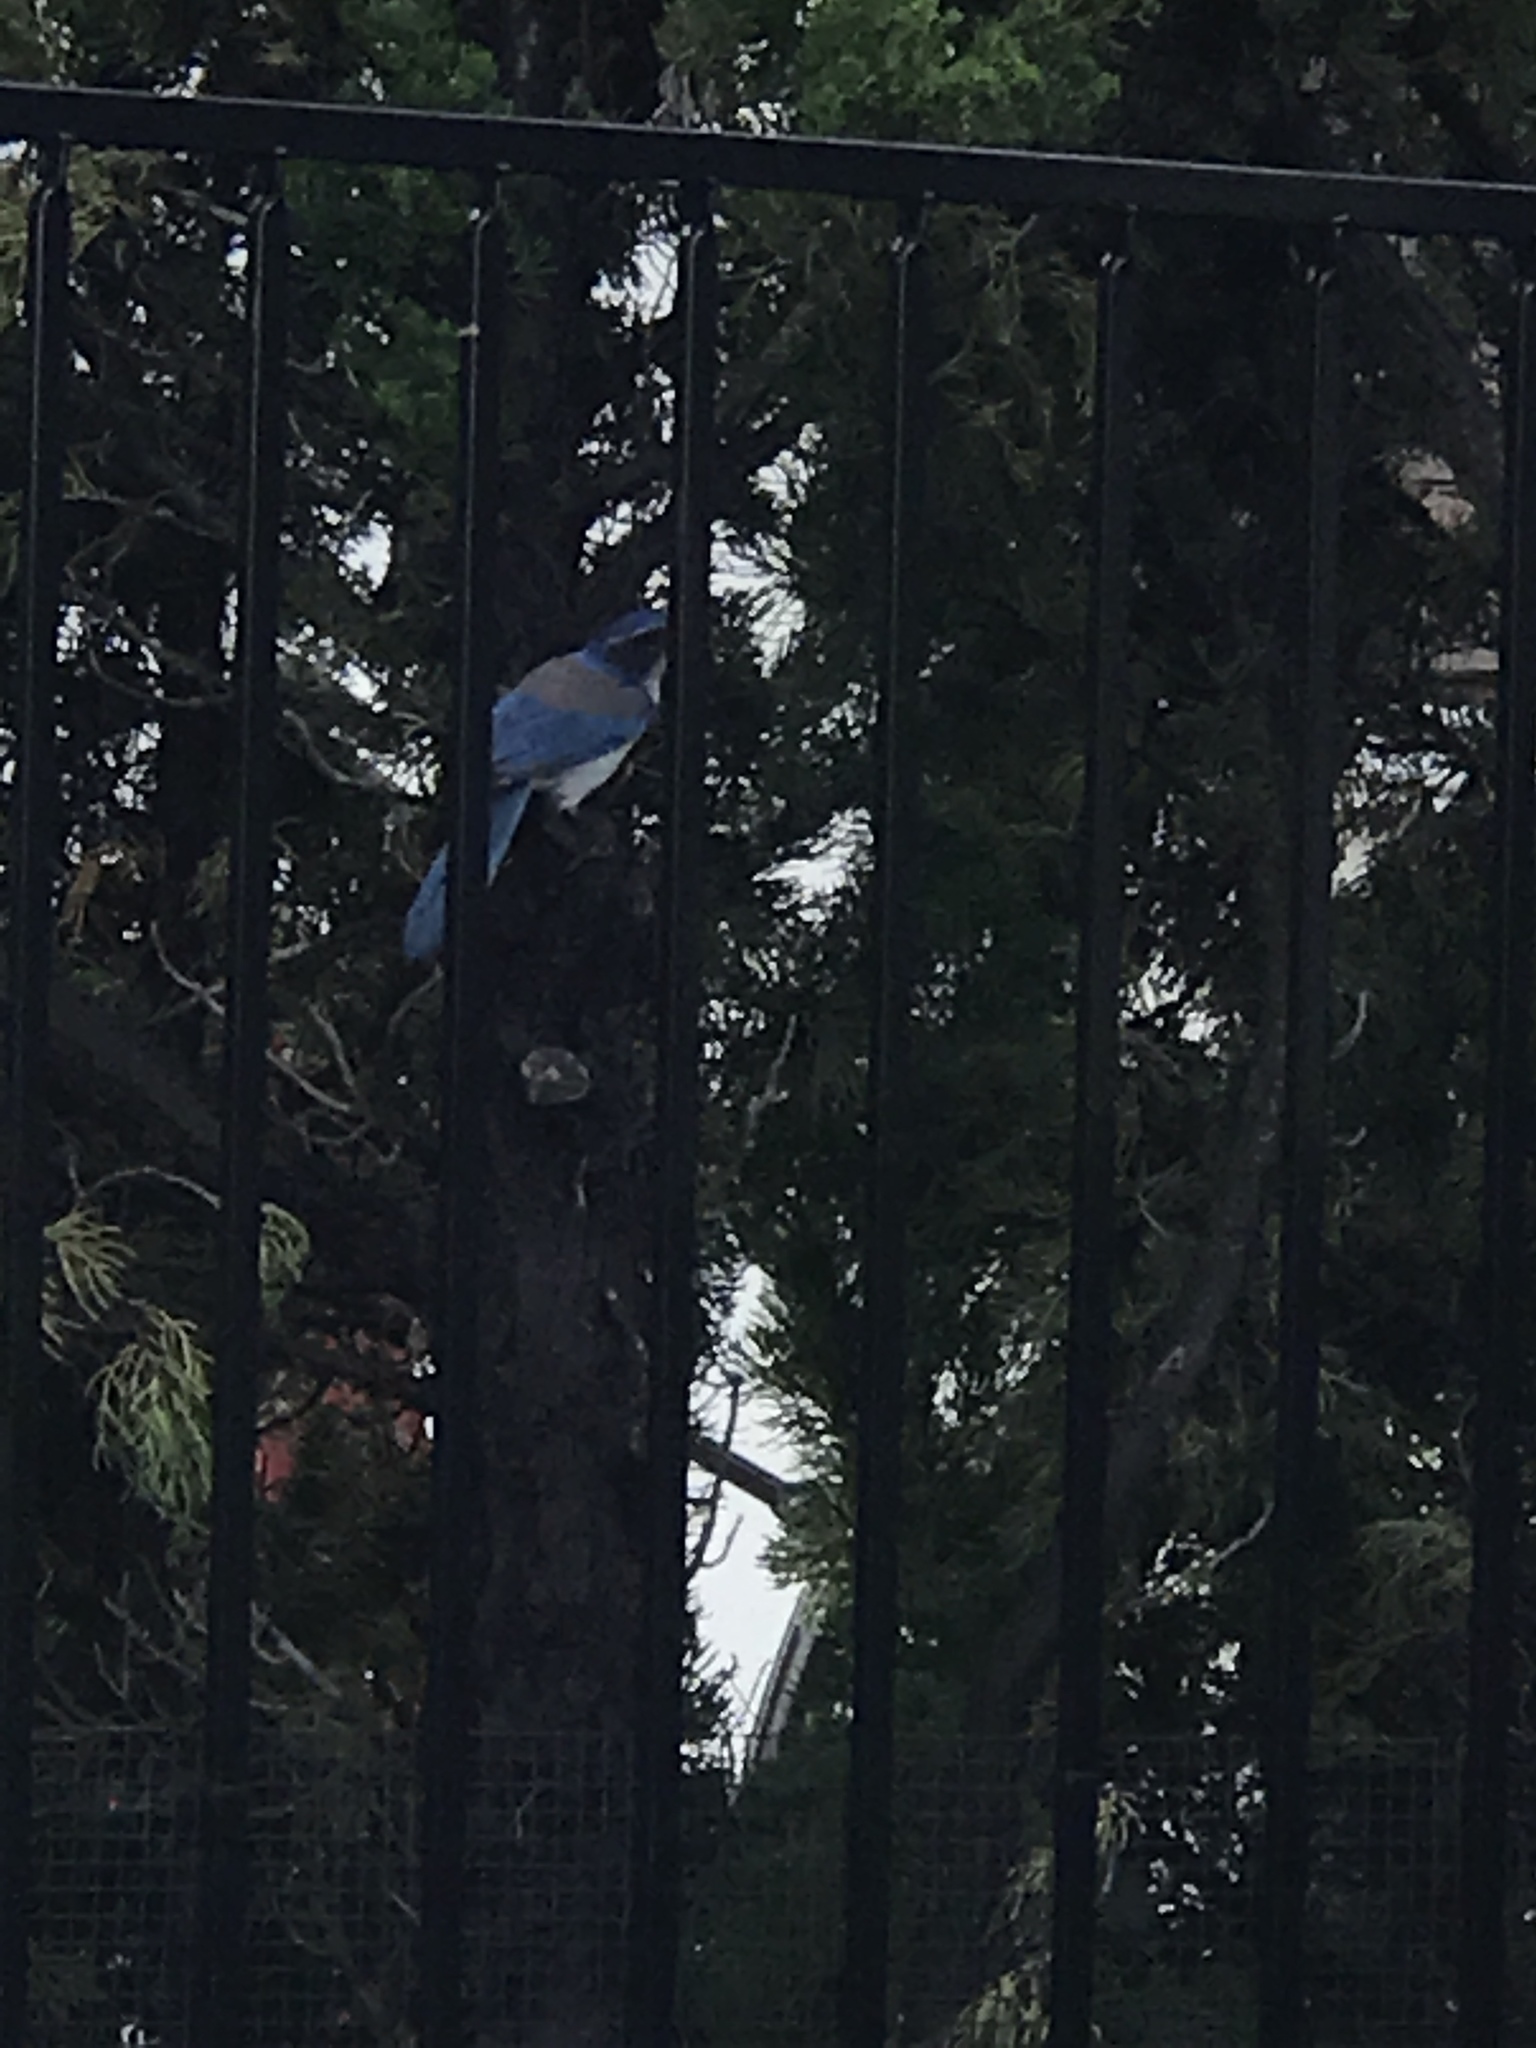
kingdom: Animalia
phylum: Chordata
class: Aves
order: Passeriformes
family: Corvidae
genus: Aphelocoma
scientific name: Aphelocoma californica
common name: California scrub-jay
